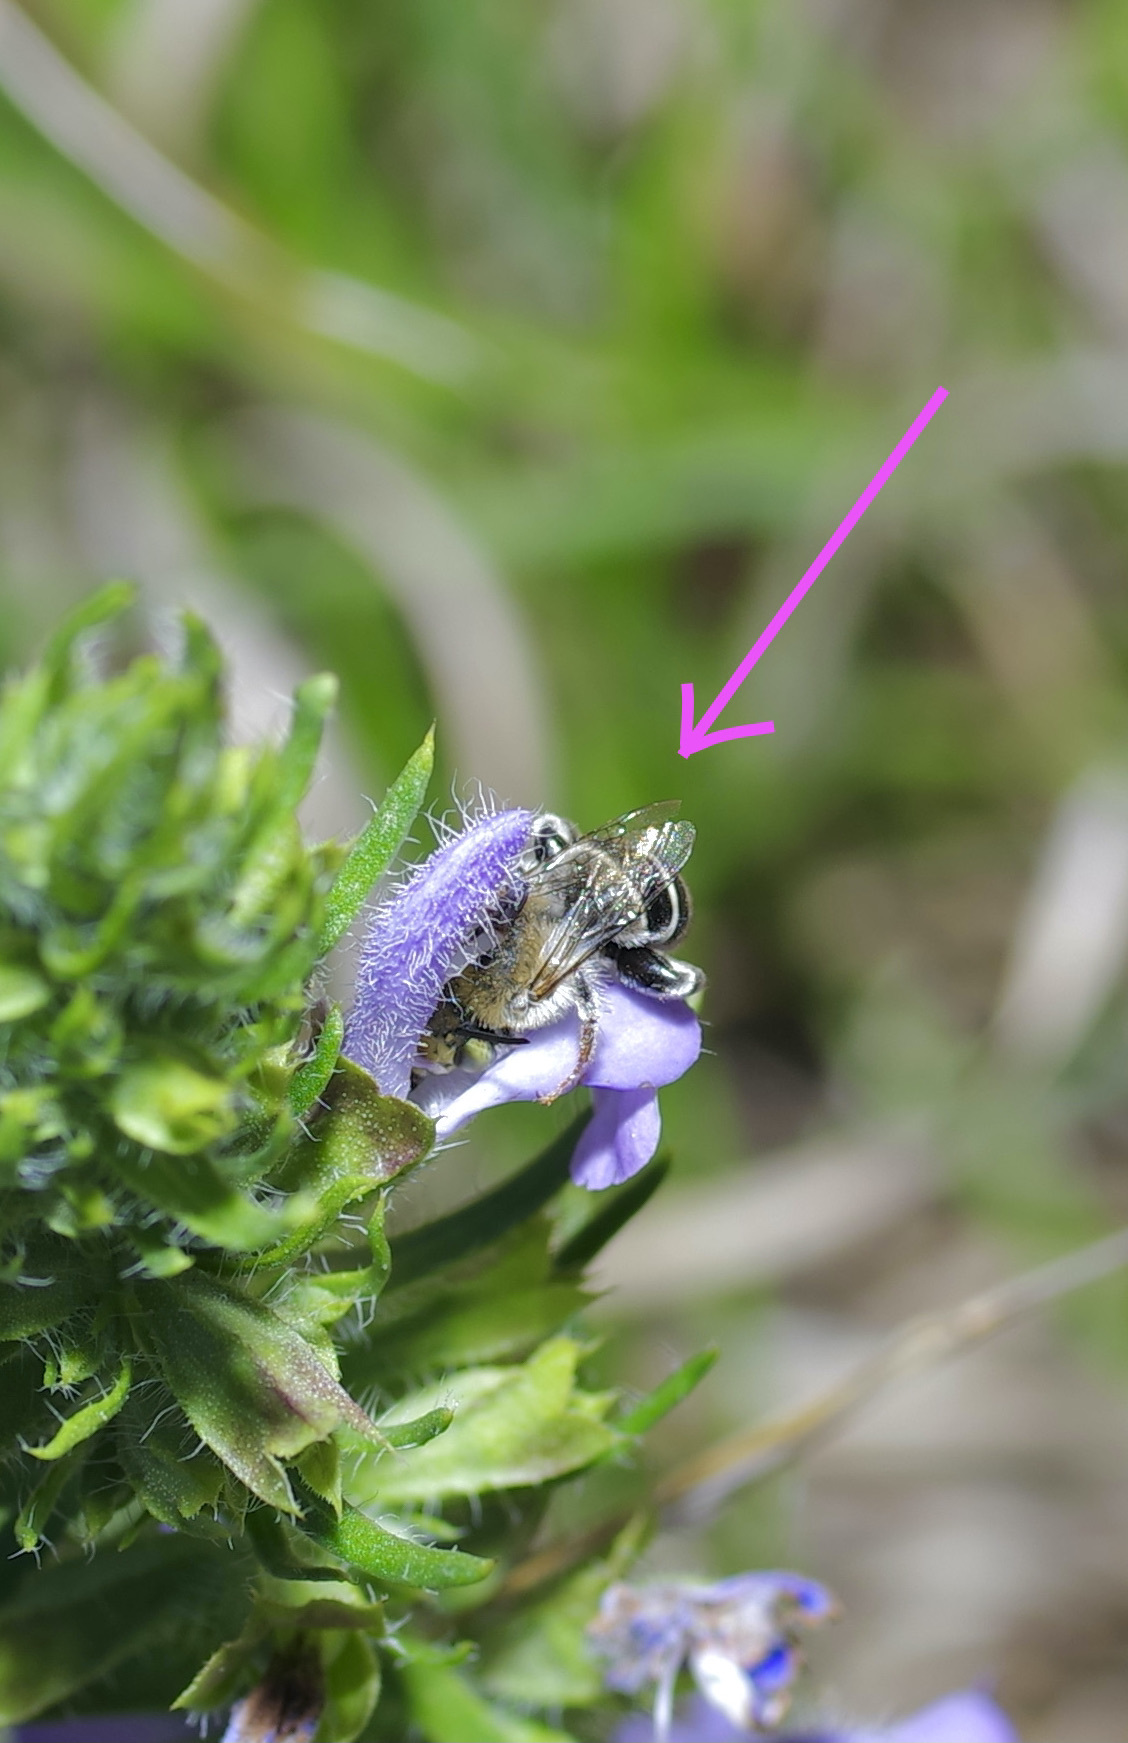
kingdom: Animalia
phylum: Arthropoda
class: Insecta
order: Hymenoptera
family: Apidae
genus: Anthophora
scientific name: Anthophora californica
